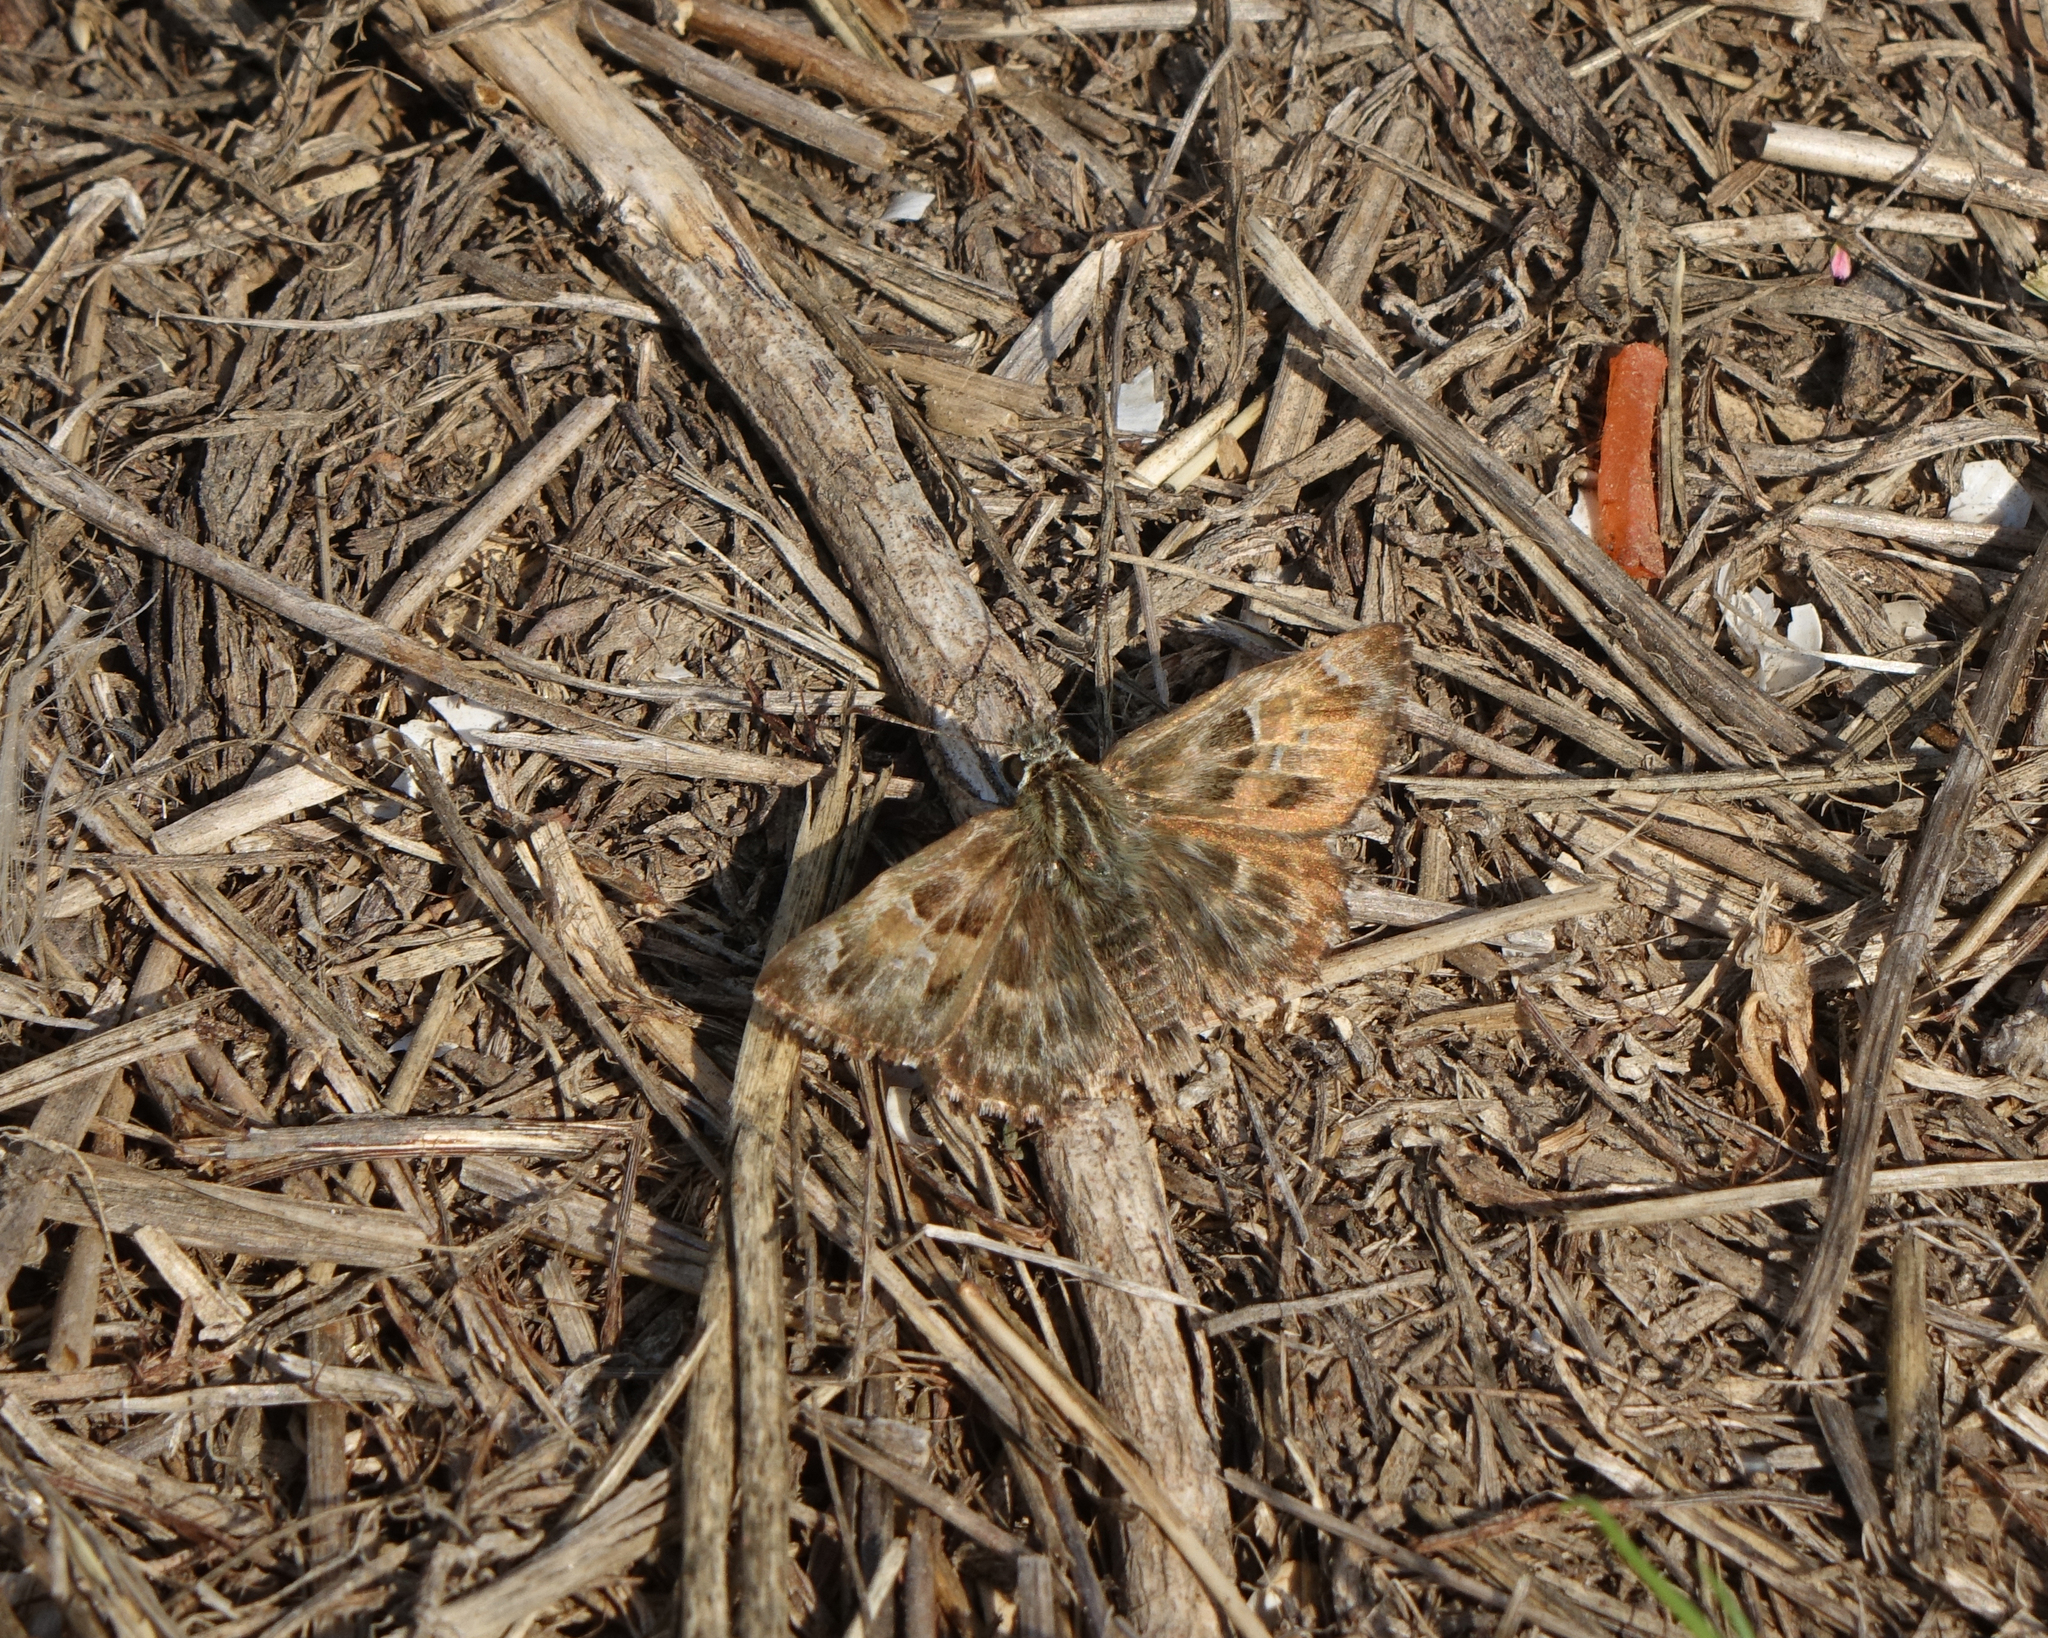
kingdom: Animalia
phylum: Arthropoda
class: Insecta
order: Lepidoptera
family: Hesperiidae
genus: Carcharodus
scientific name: Carcharodus alceae
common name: Mallow skipper
